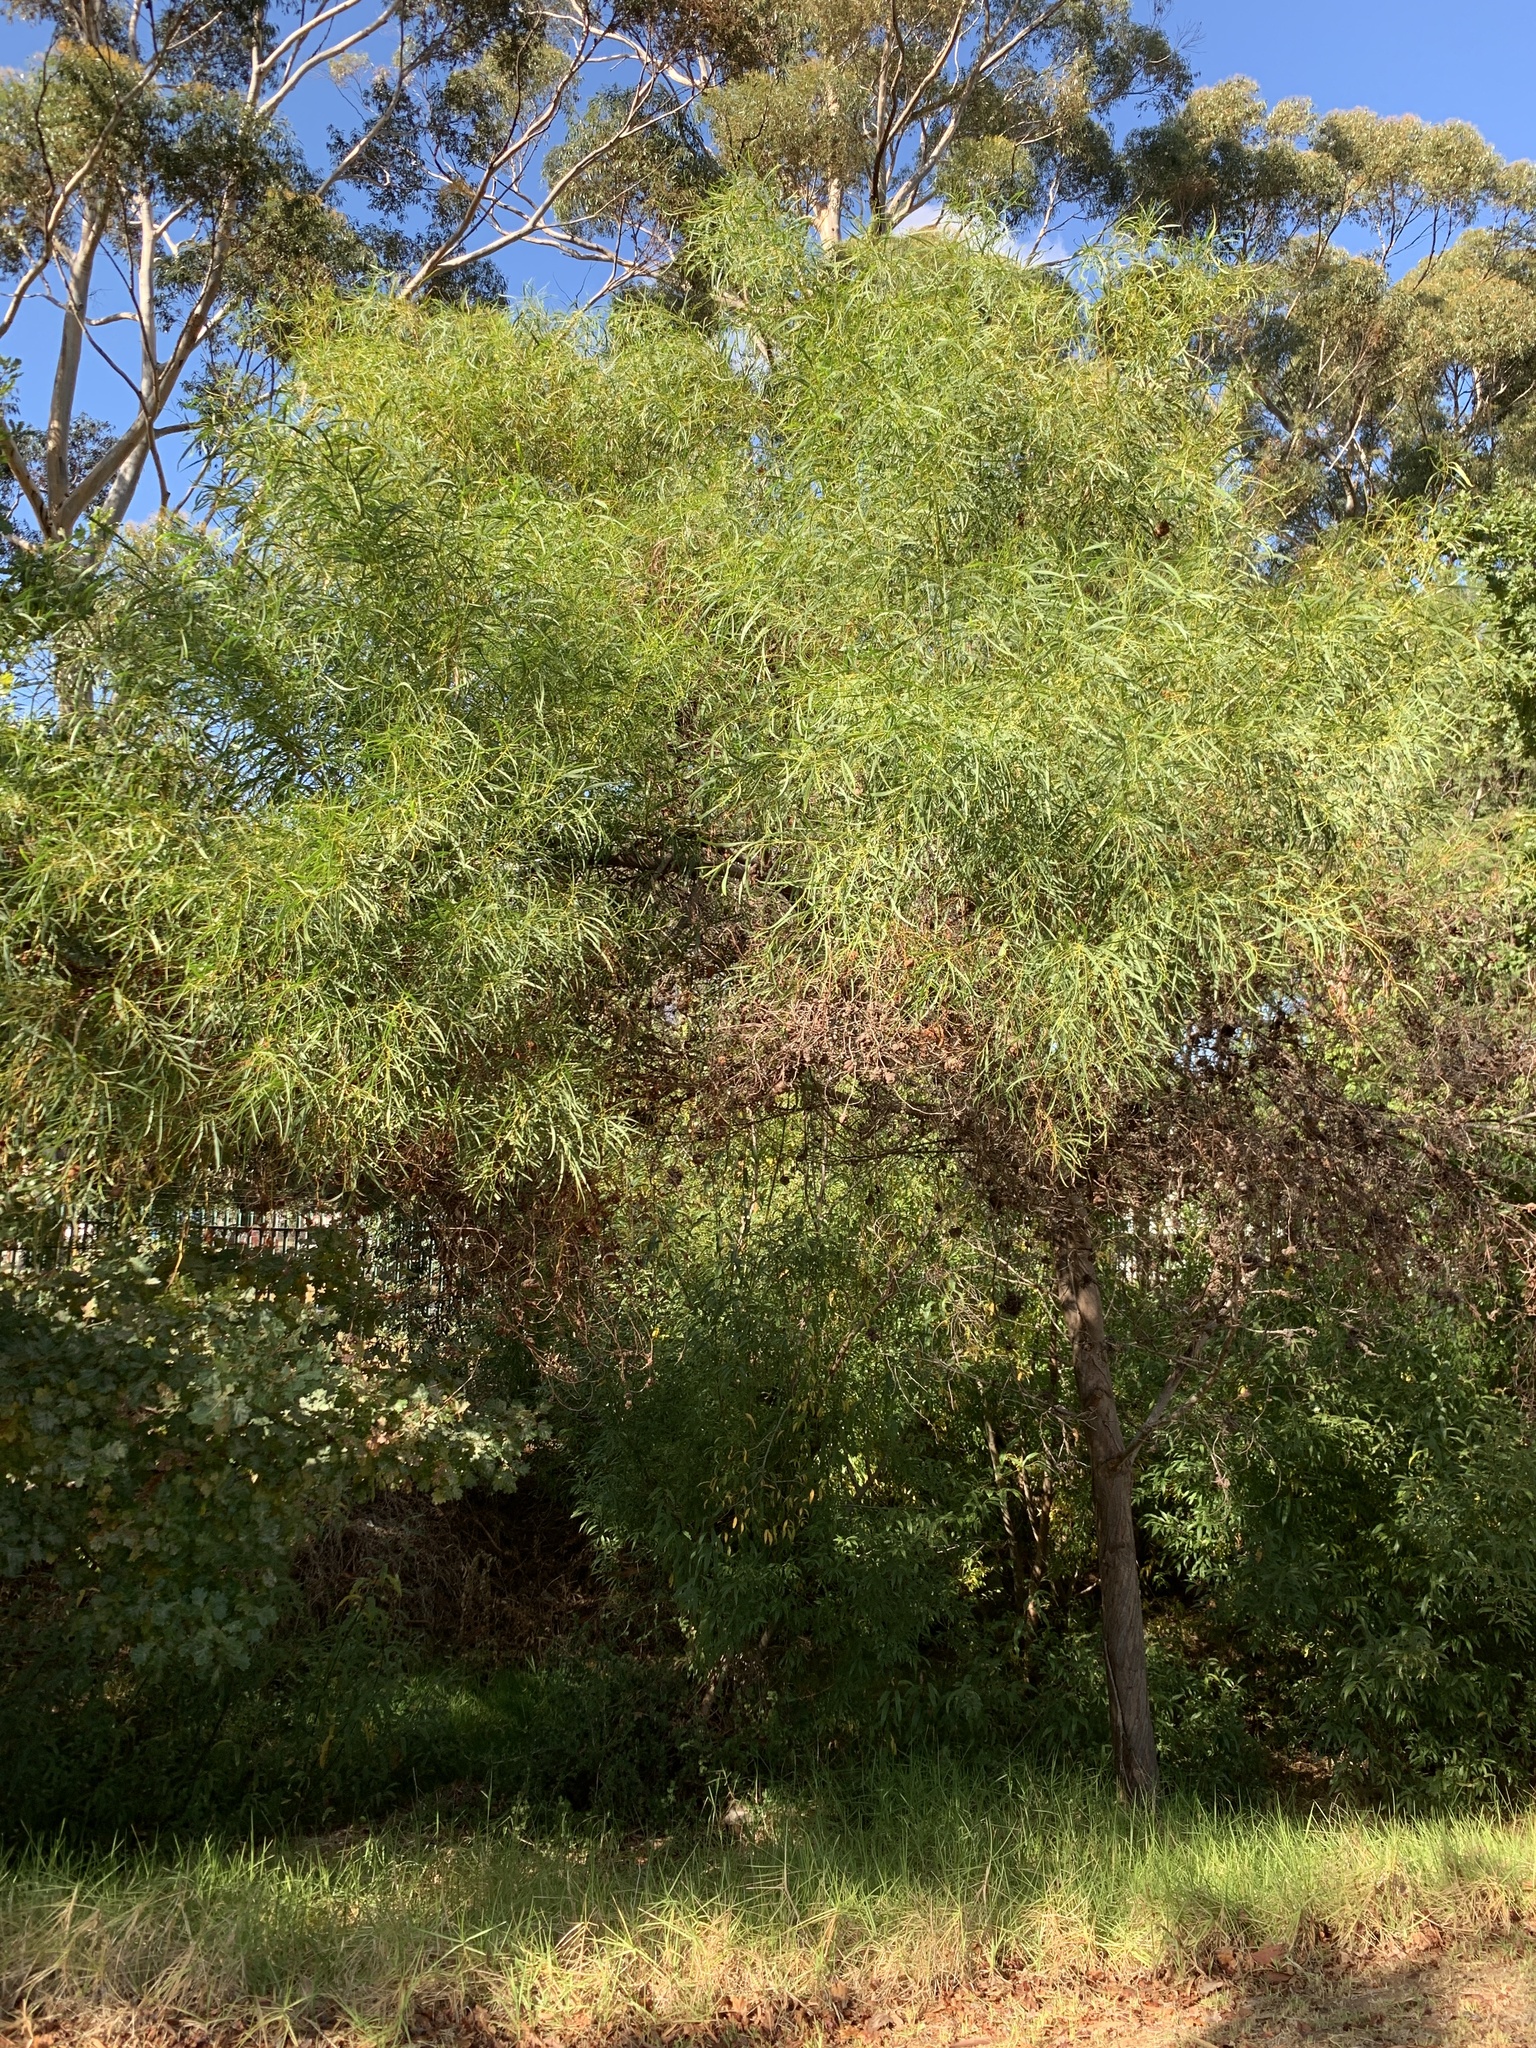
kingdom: Plantae
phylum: Tracheophyta
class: Magnoliopsida
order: Fabales
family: Fabaceae
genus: Acacia
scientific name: Acacia saligna
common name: Orange wattle
